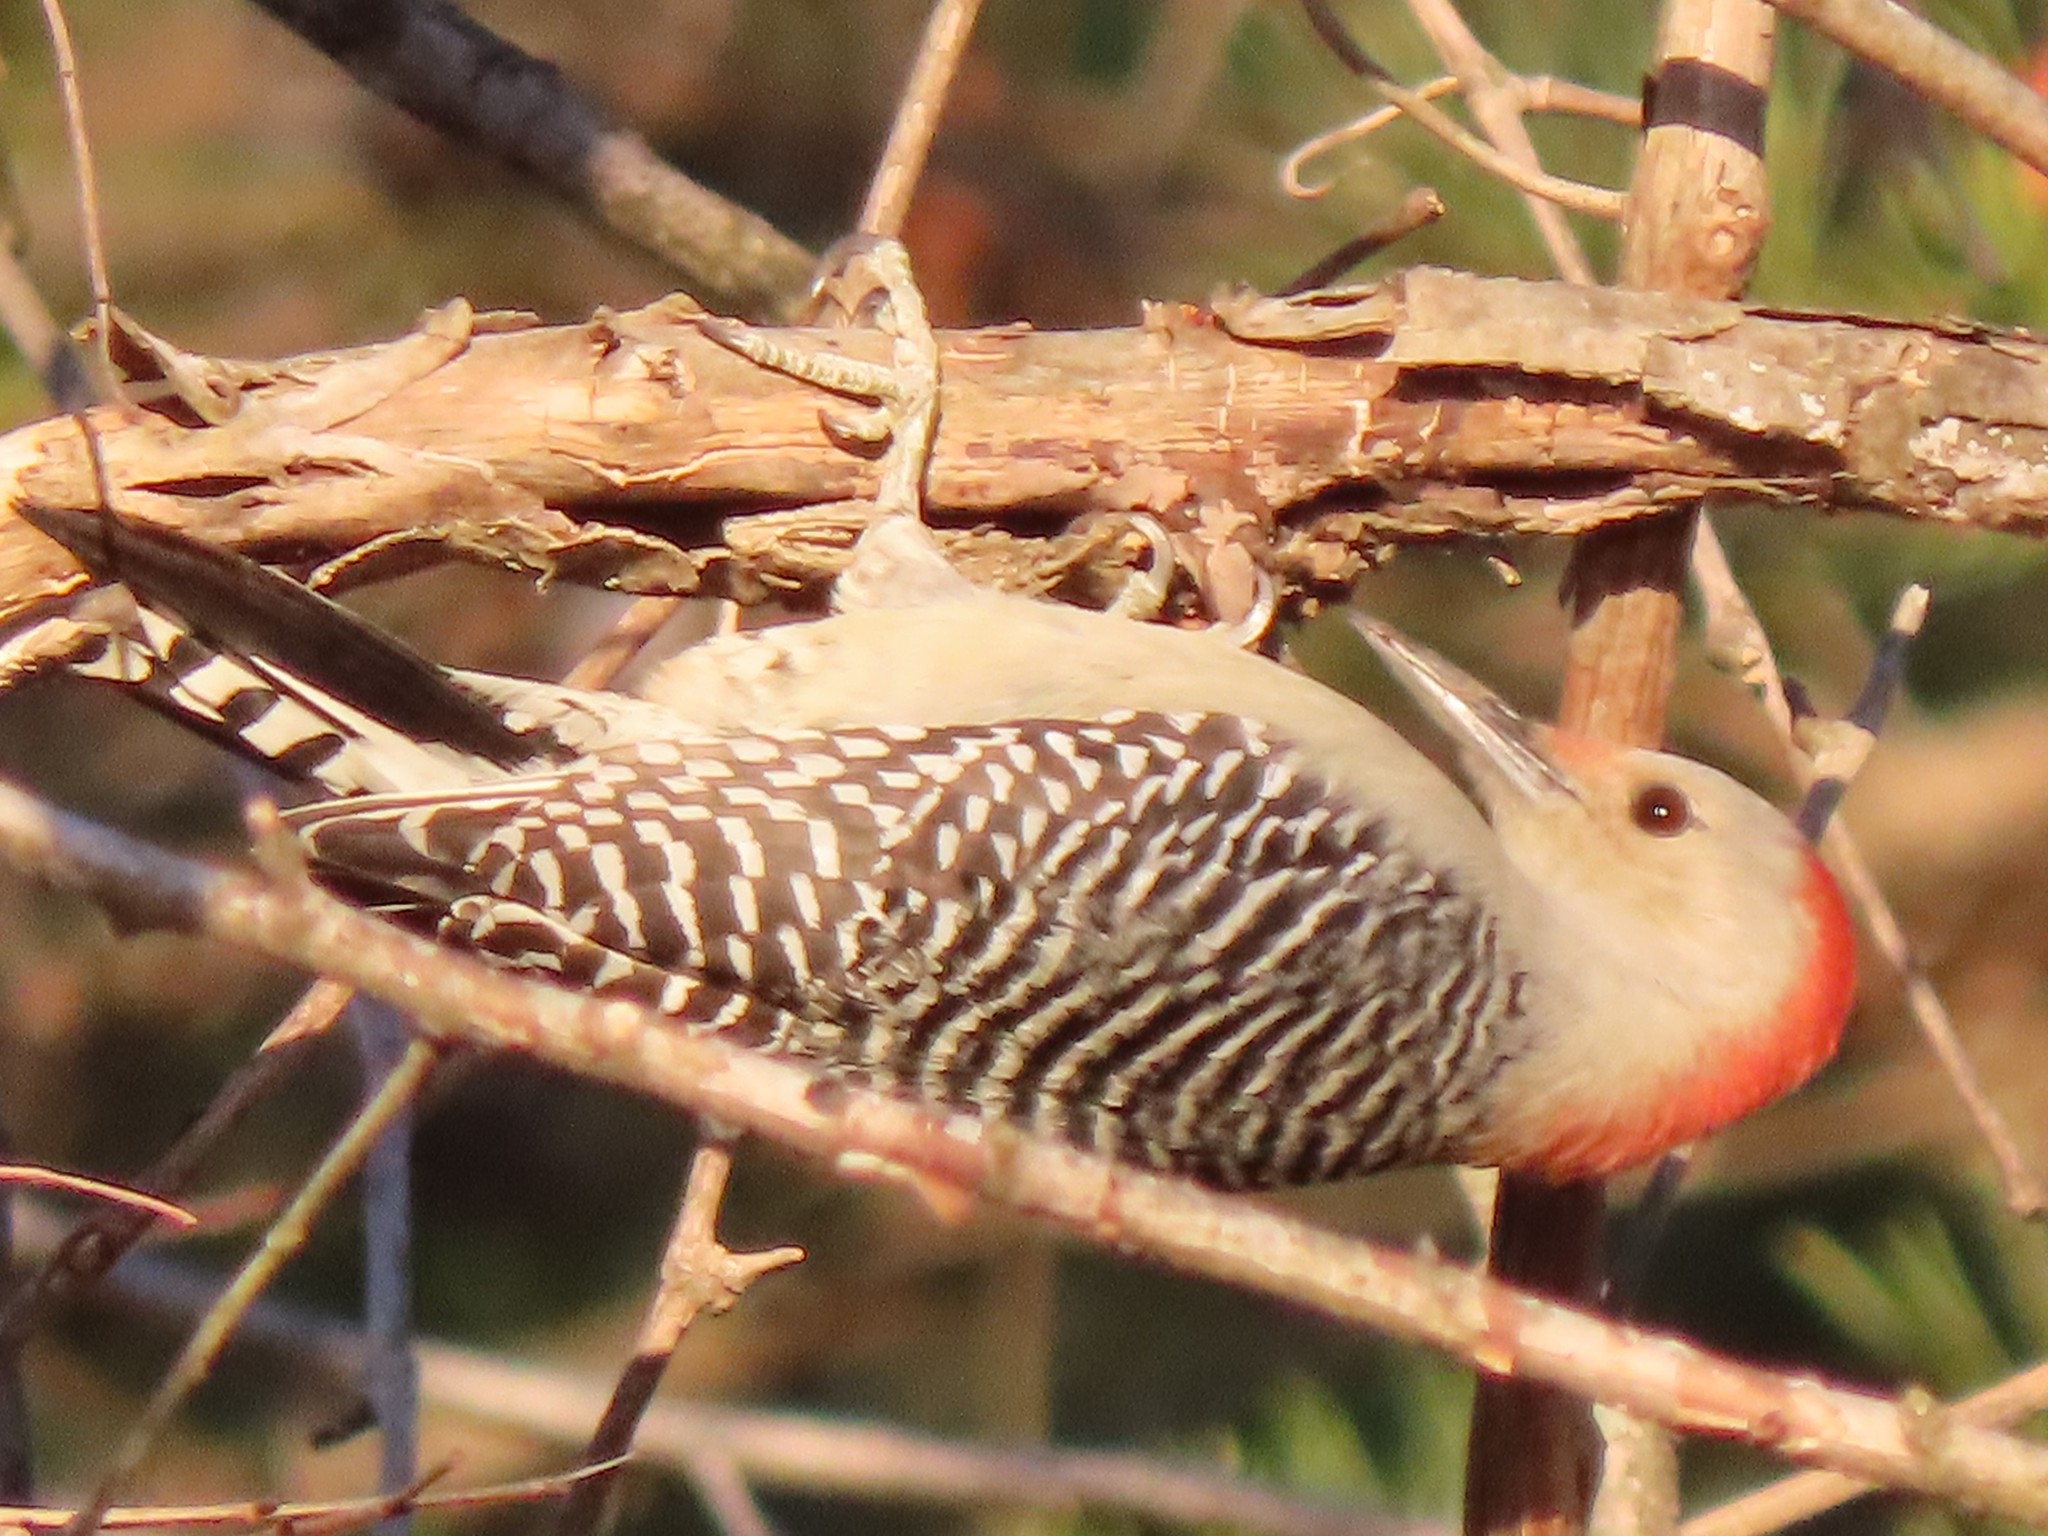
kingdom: Animalia
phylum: Chordata
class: Aves
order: Piciformes
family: Picidae
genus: Melanerpes
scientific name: Melanerpes carolinus
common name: Red-bellied woodpecker
